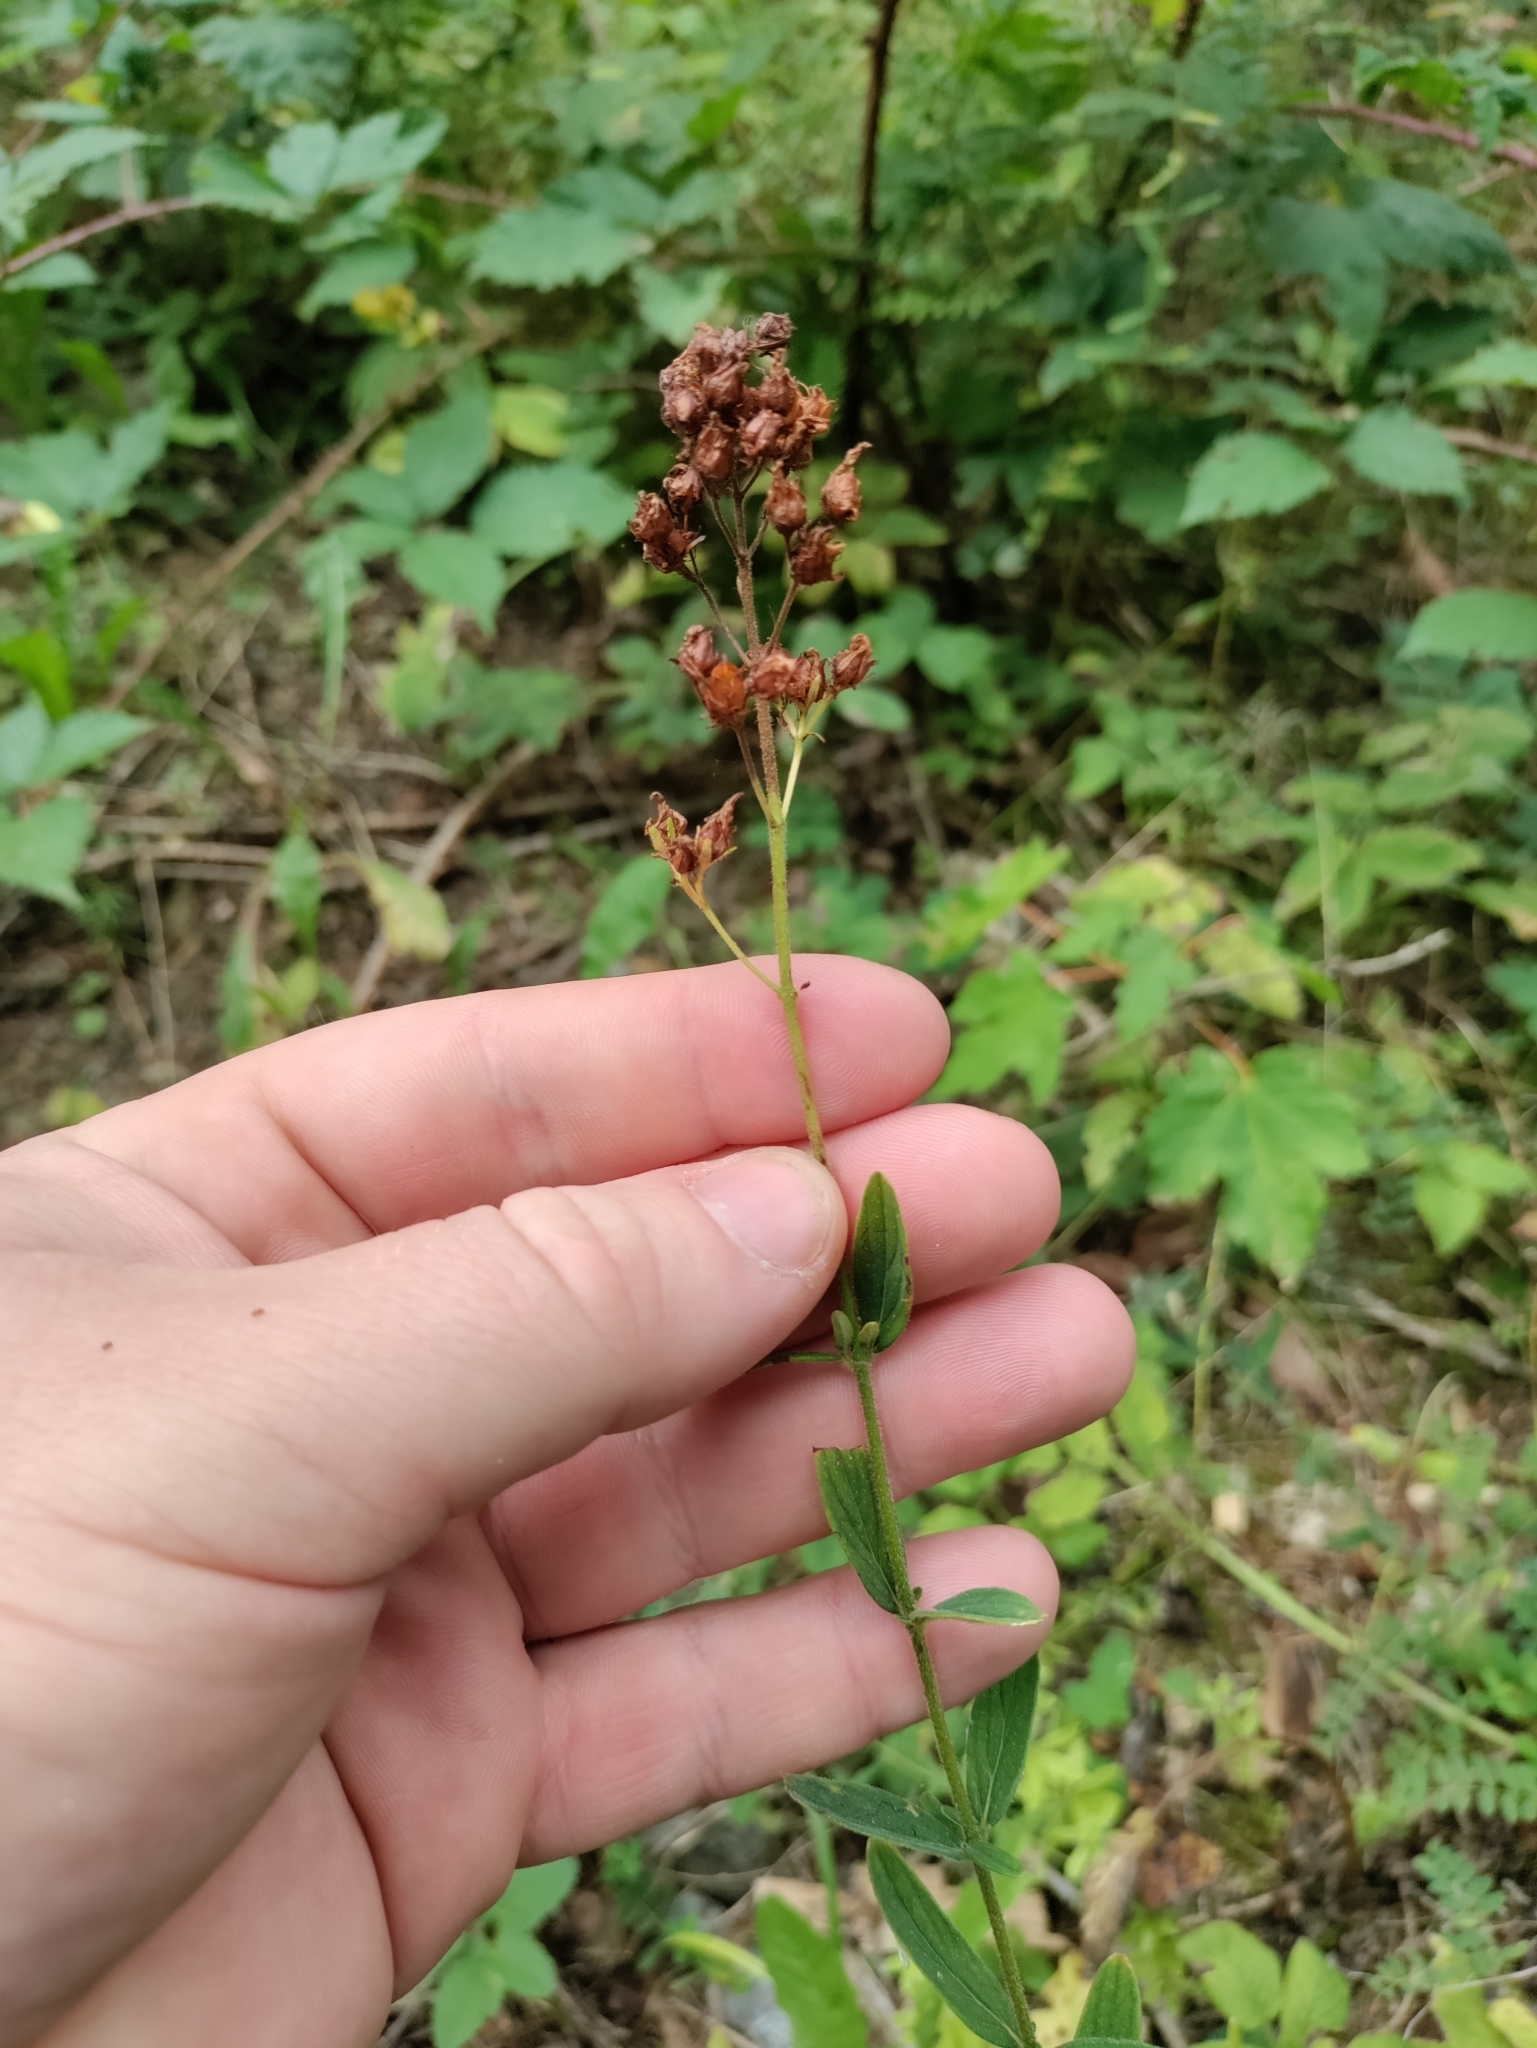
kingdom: Plantae
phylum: Tracheophyta
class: Magnoliopsida
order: Malpighiales
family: Hypericaceae
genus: Hypericum
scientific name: Hypericum hirsutum
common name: Hairy st. john's-wort
